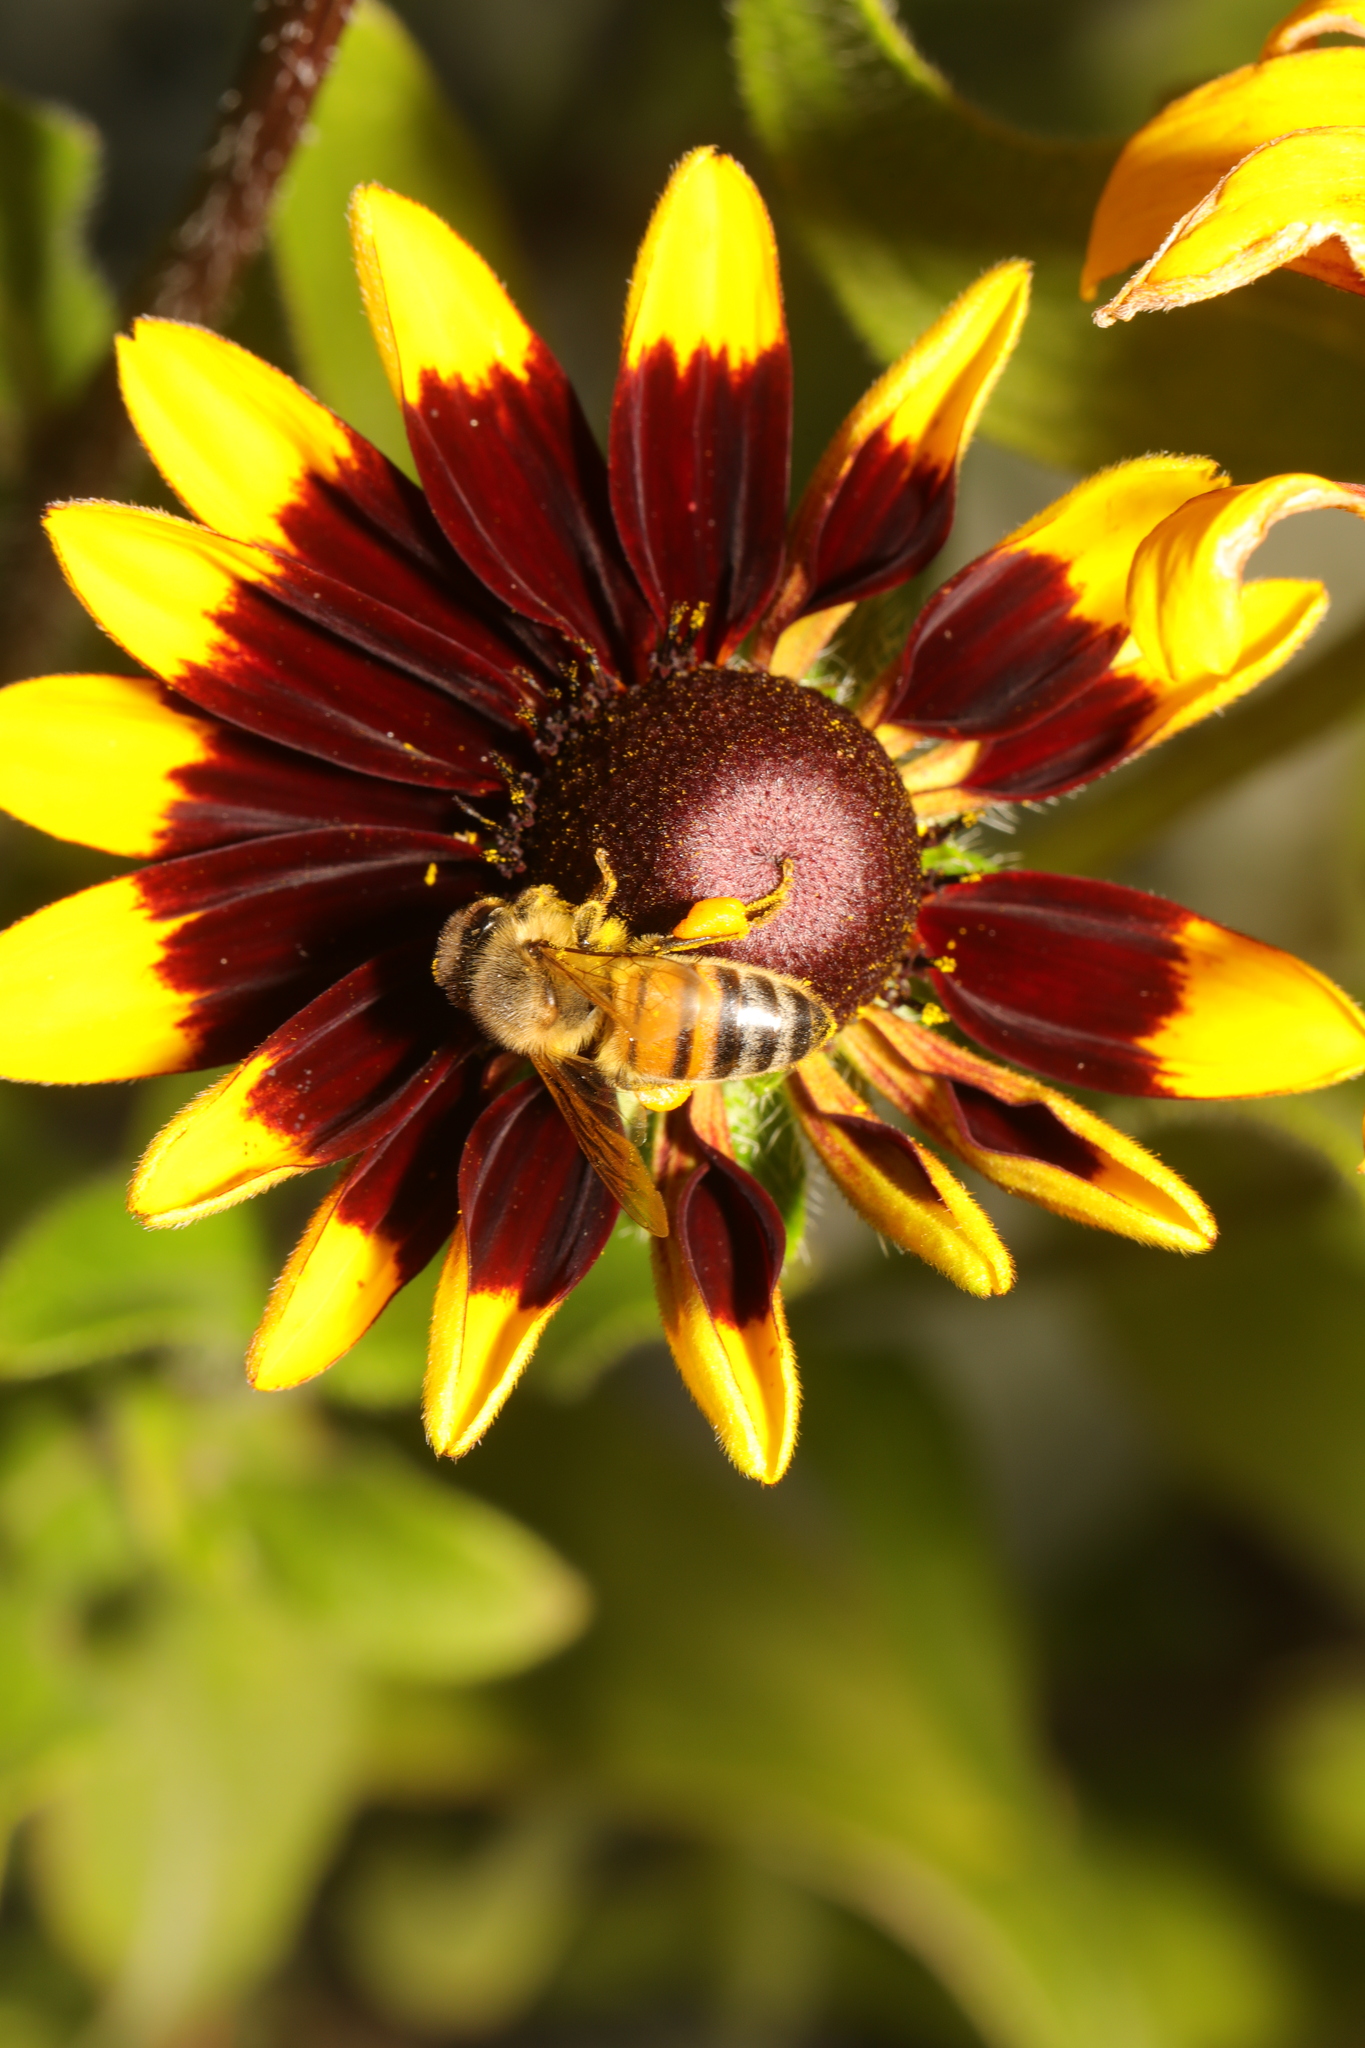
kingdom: Animalia
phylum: Arthropoda
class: Insecta
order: Hymenoptera
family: Apidae
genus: Apis
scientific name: Apis mellifera
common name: Honey bee
